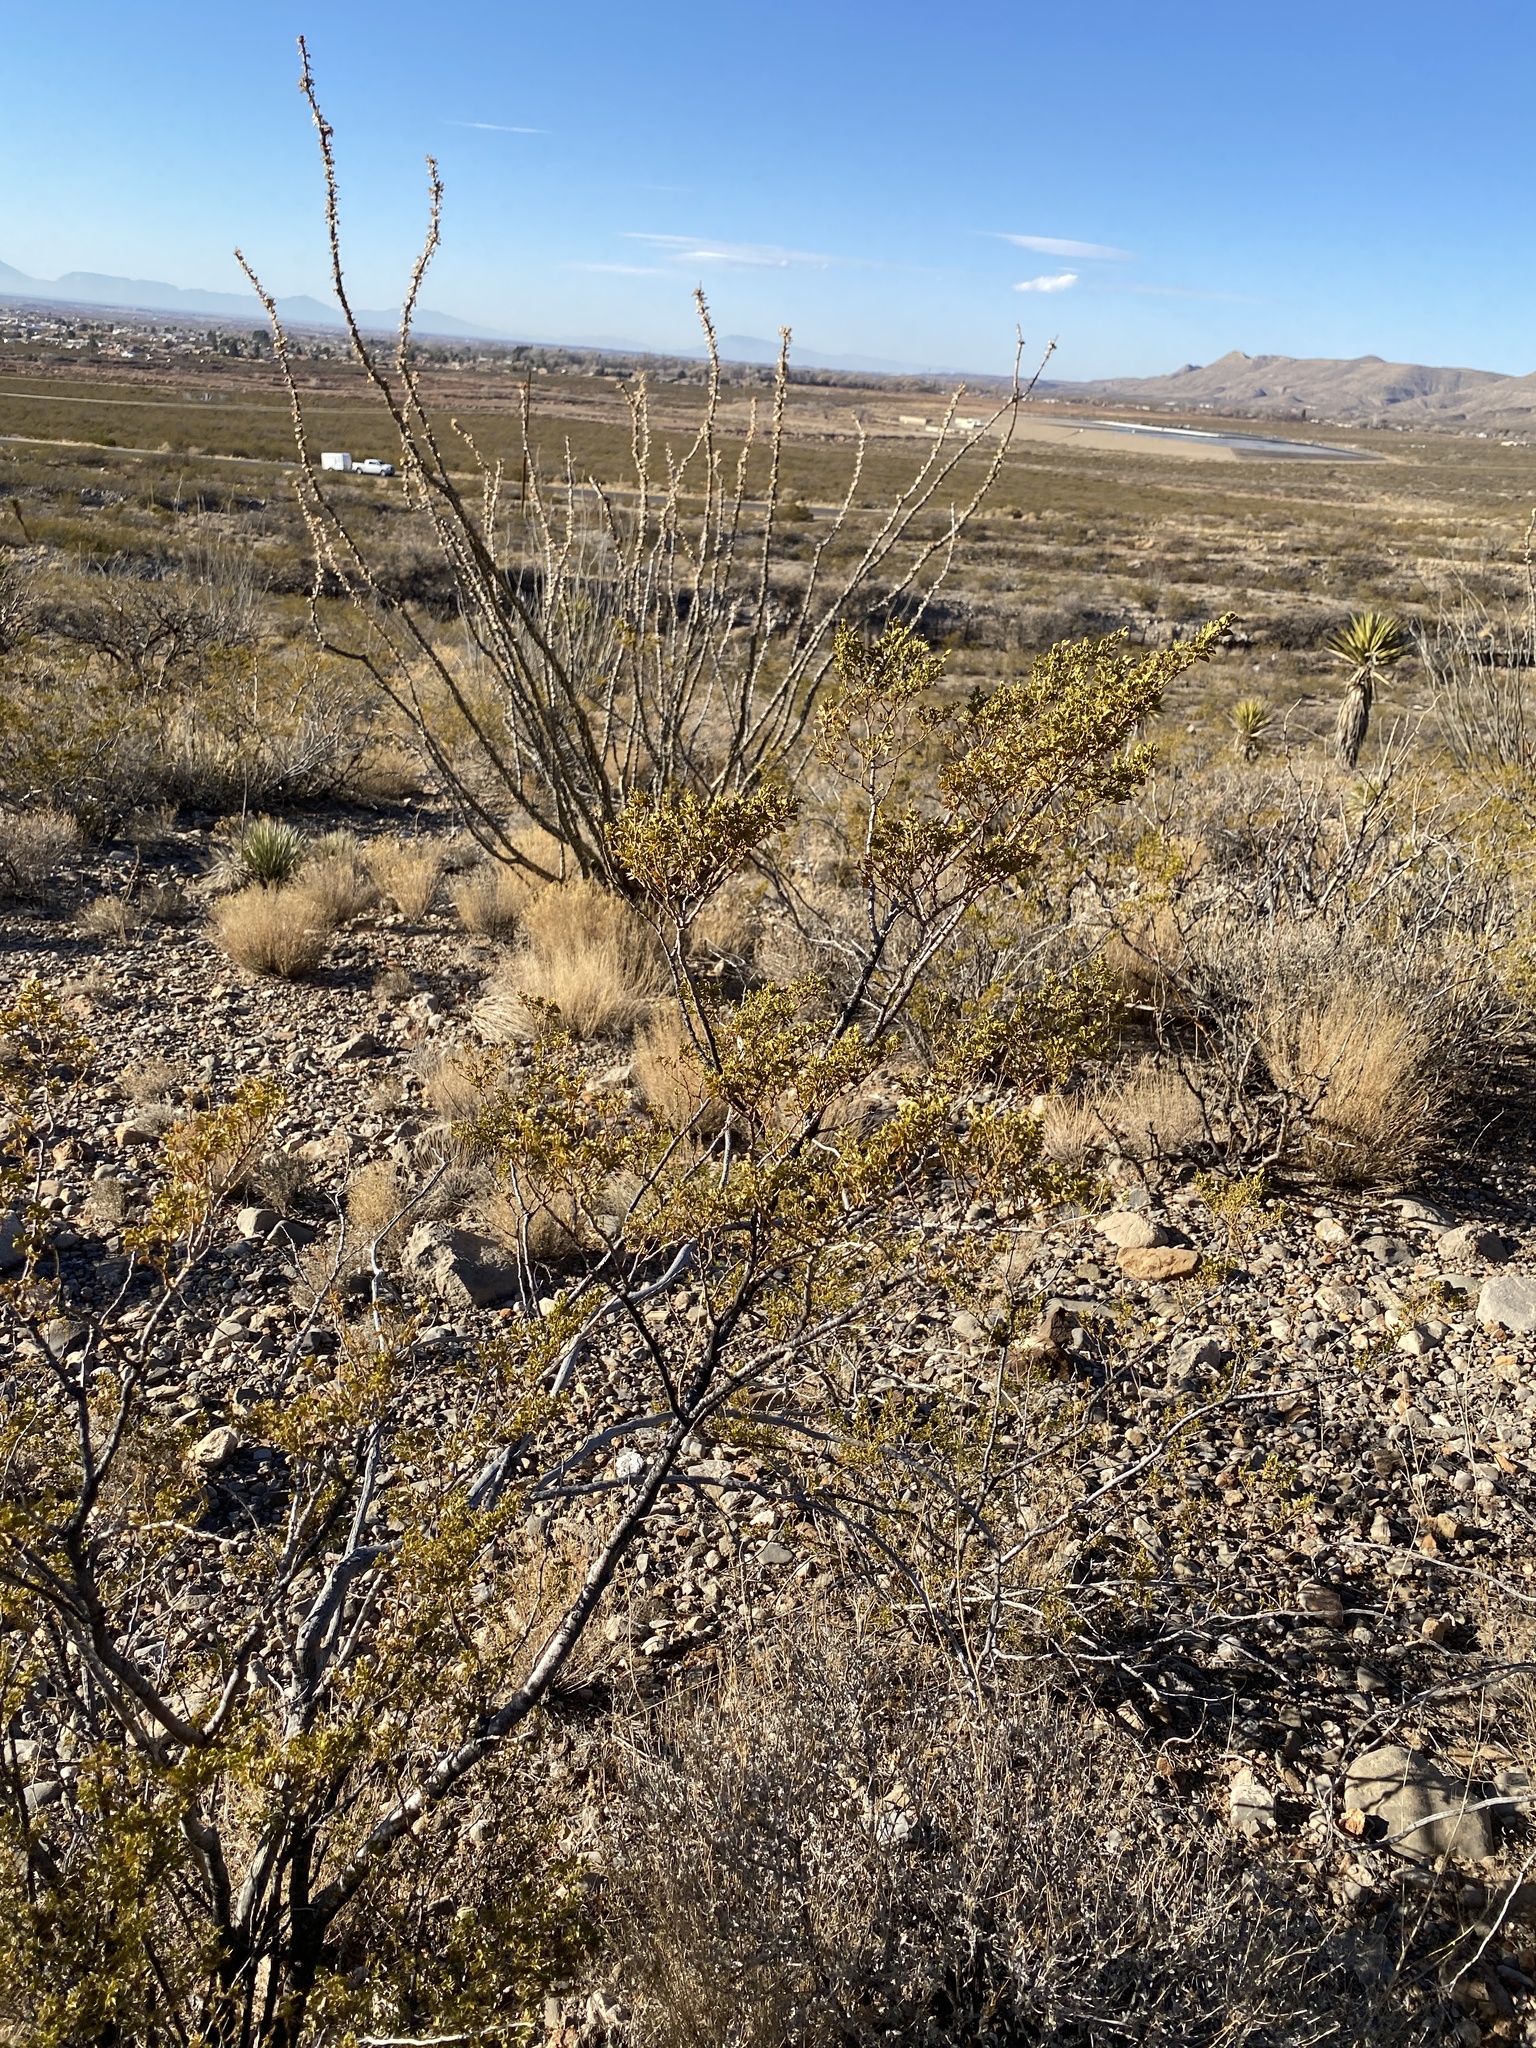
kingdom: Plantae
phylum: Tracheophyta
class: Magnoliopsida
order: Zygophyllales
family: Zygophyllaceae
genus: Larrea
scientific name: Larrea tridentata
